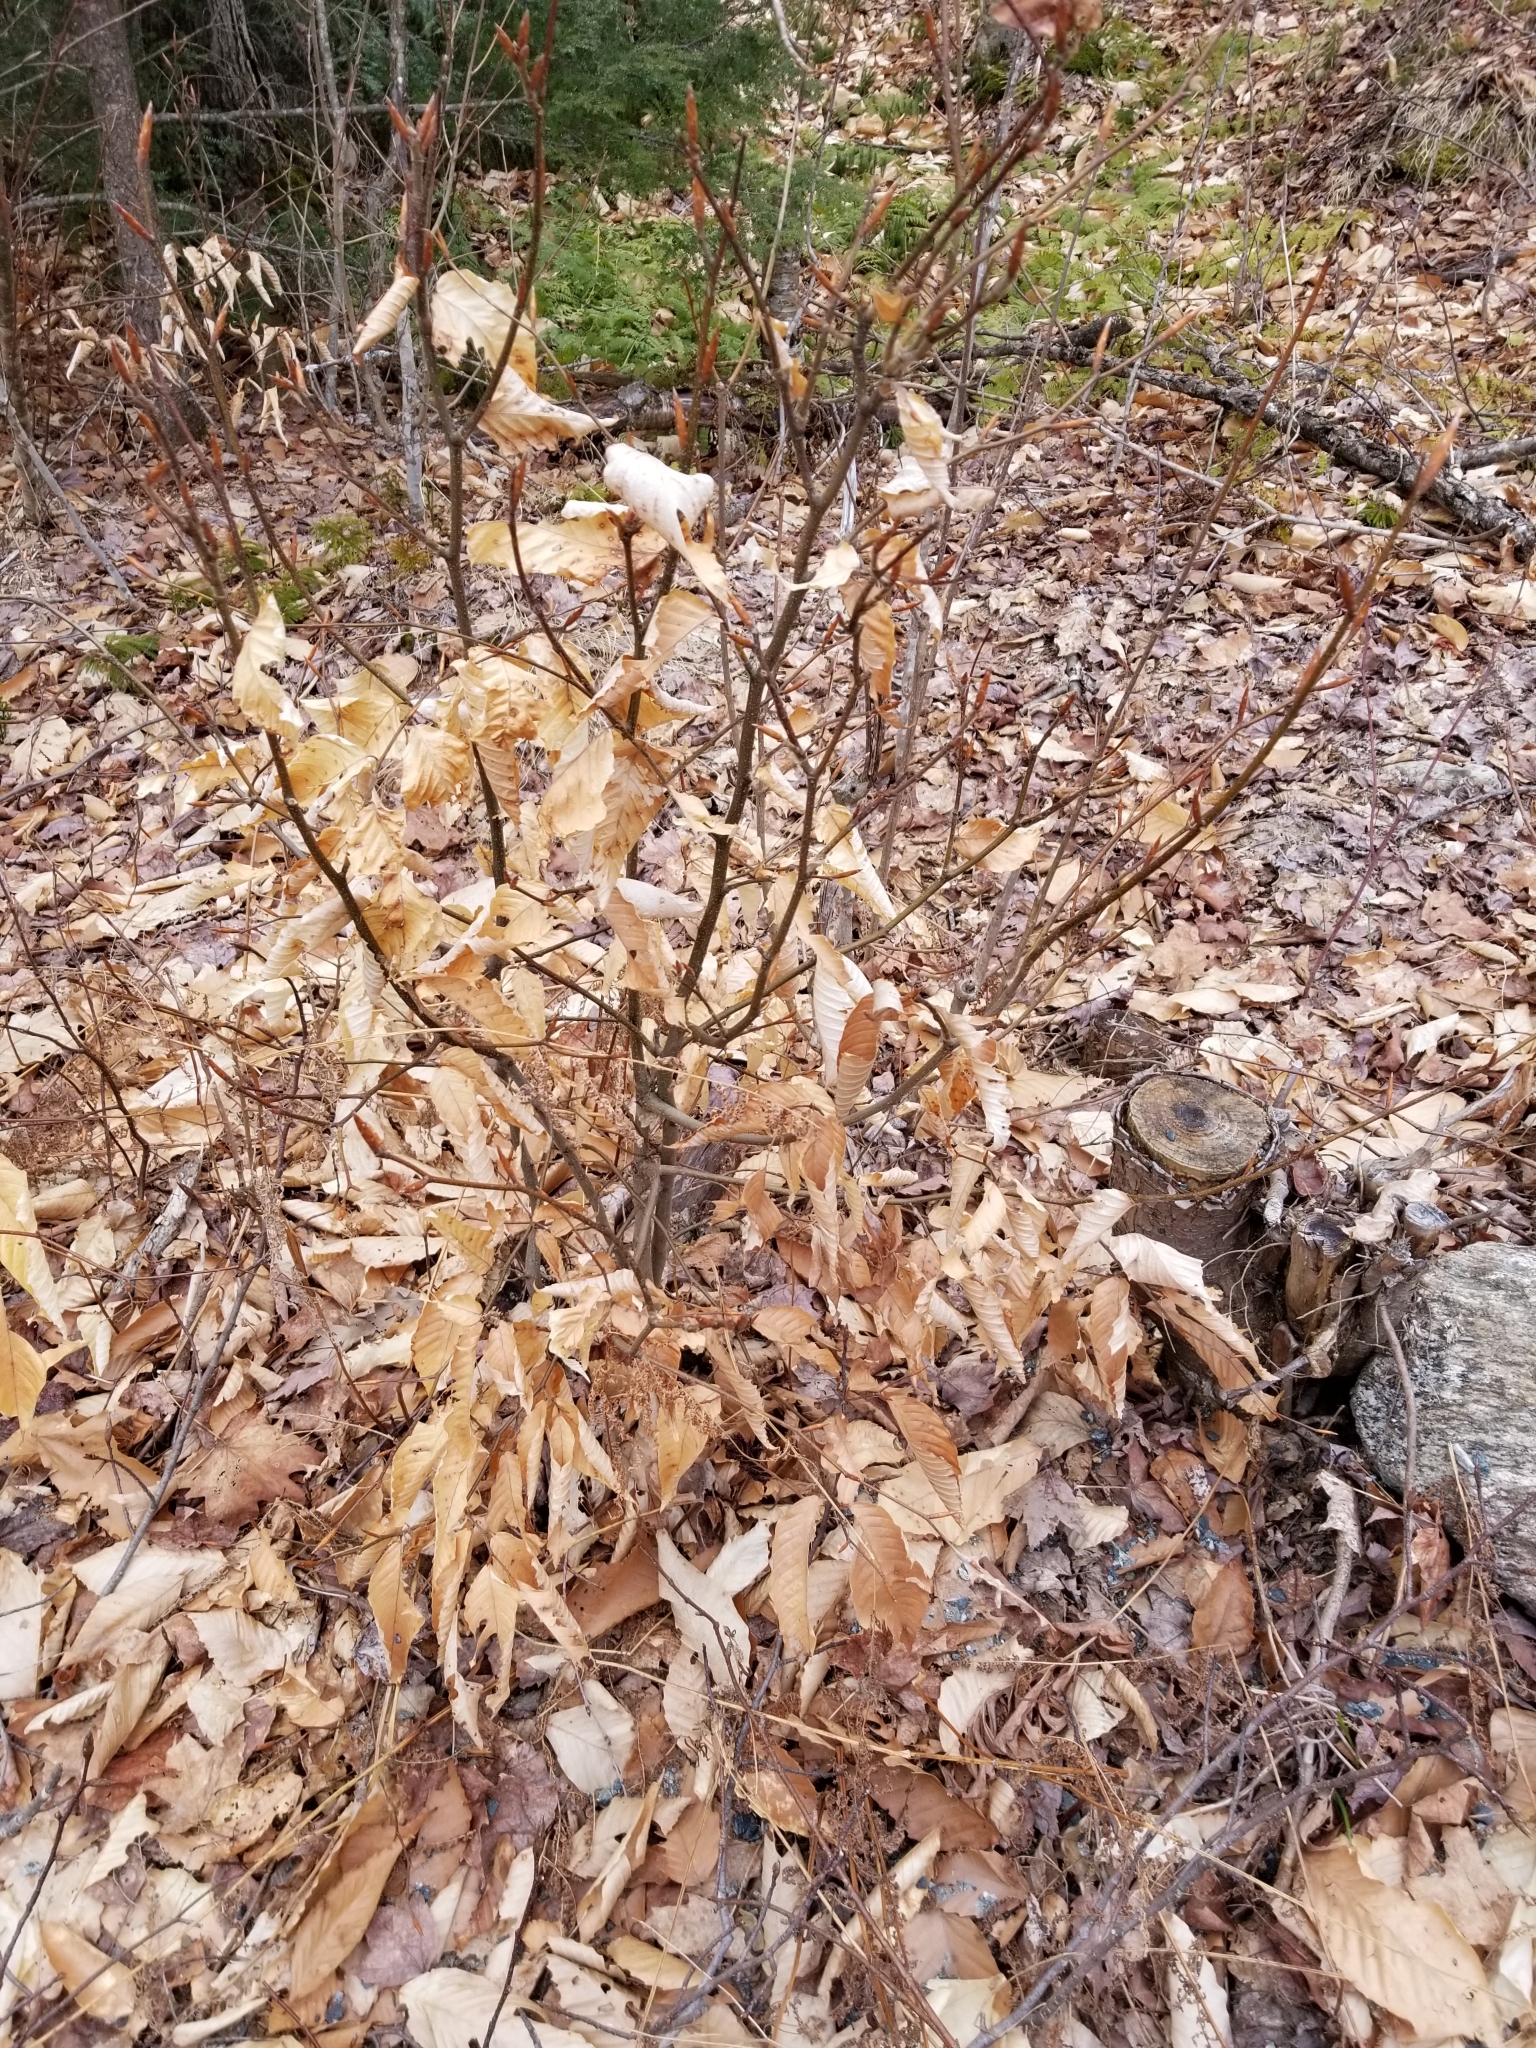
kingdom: Plantae
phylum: Tracheophyta
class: Magnoliopsida
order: Fagales
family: Fagaceae
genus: Fagus
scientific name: Fagus grandifolia
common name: American beech
